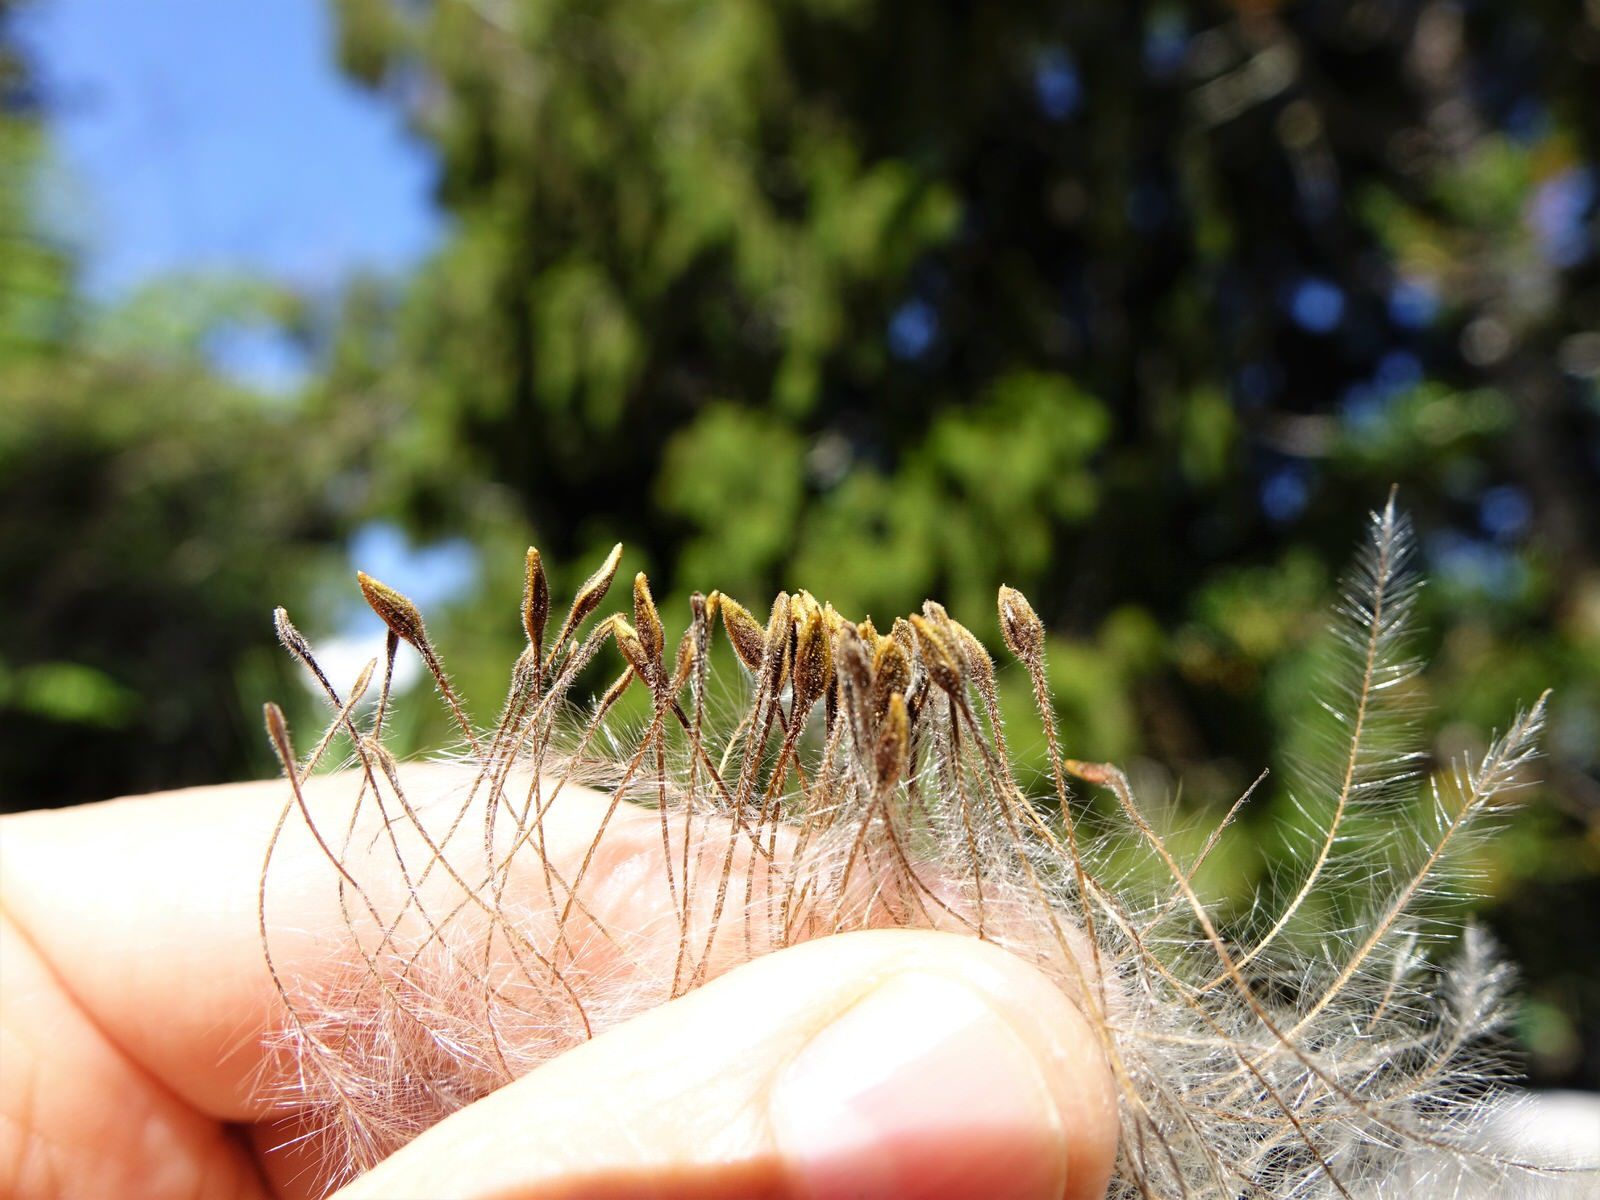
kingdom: Plantae
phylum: Tracheophyta
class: Magnoliopsida
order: Ranunculales
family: Ranunculaceae
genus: Clematis
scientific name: Clematis paniculata
